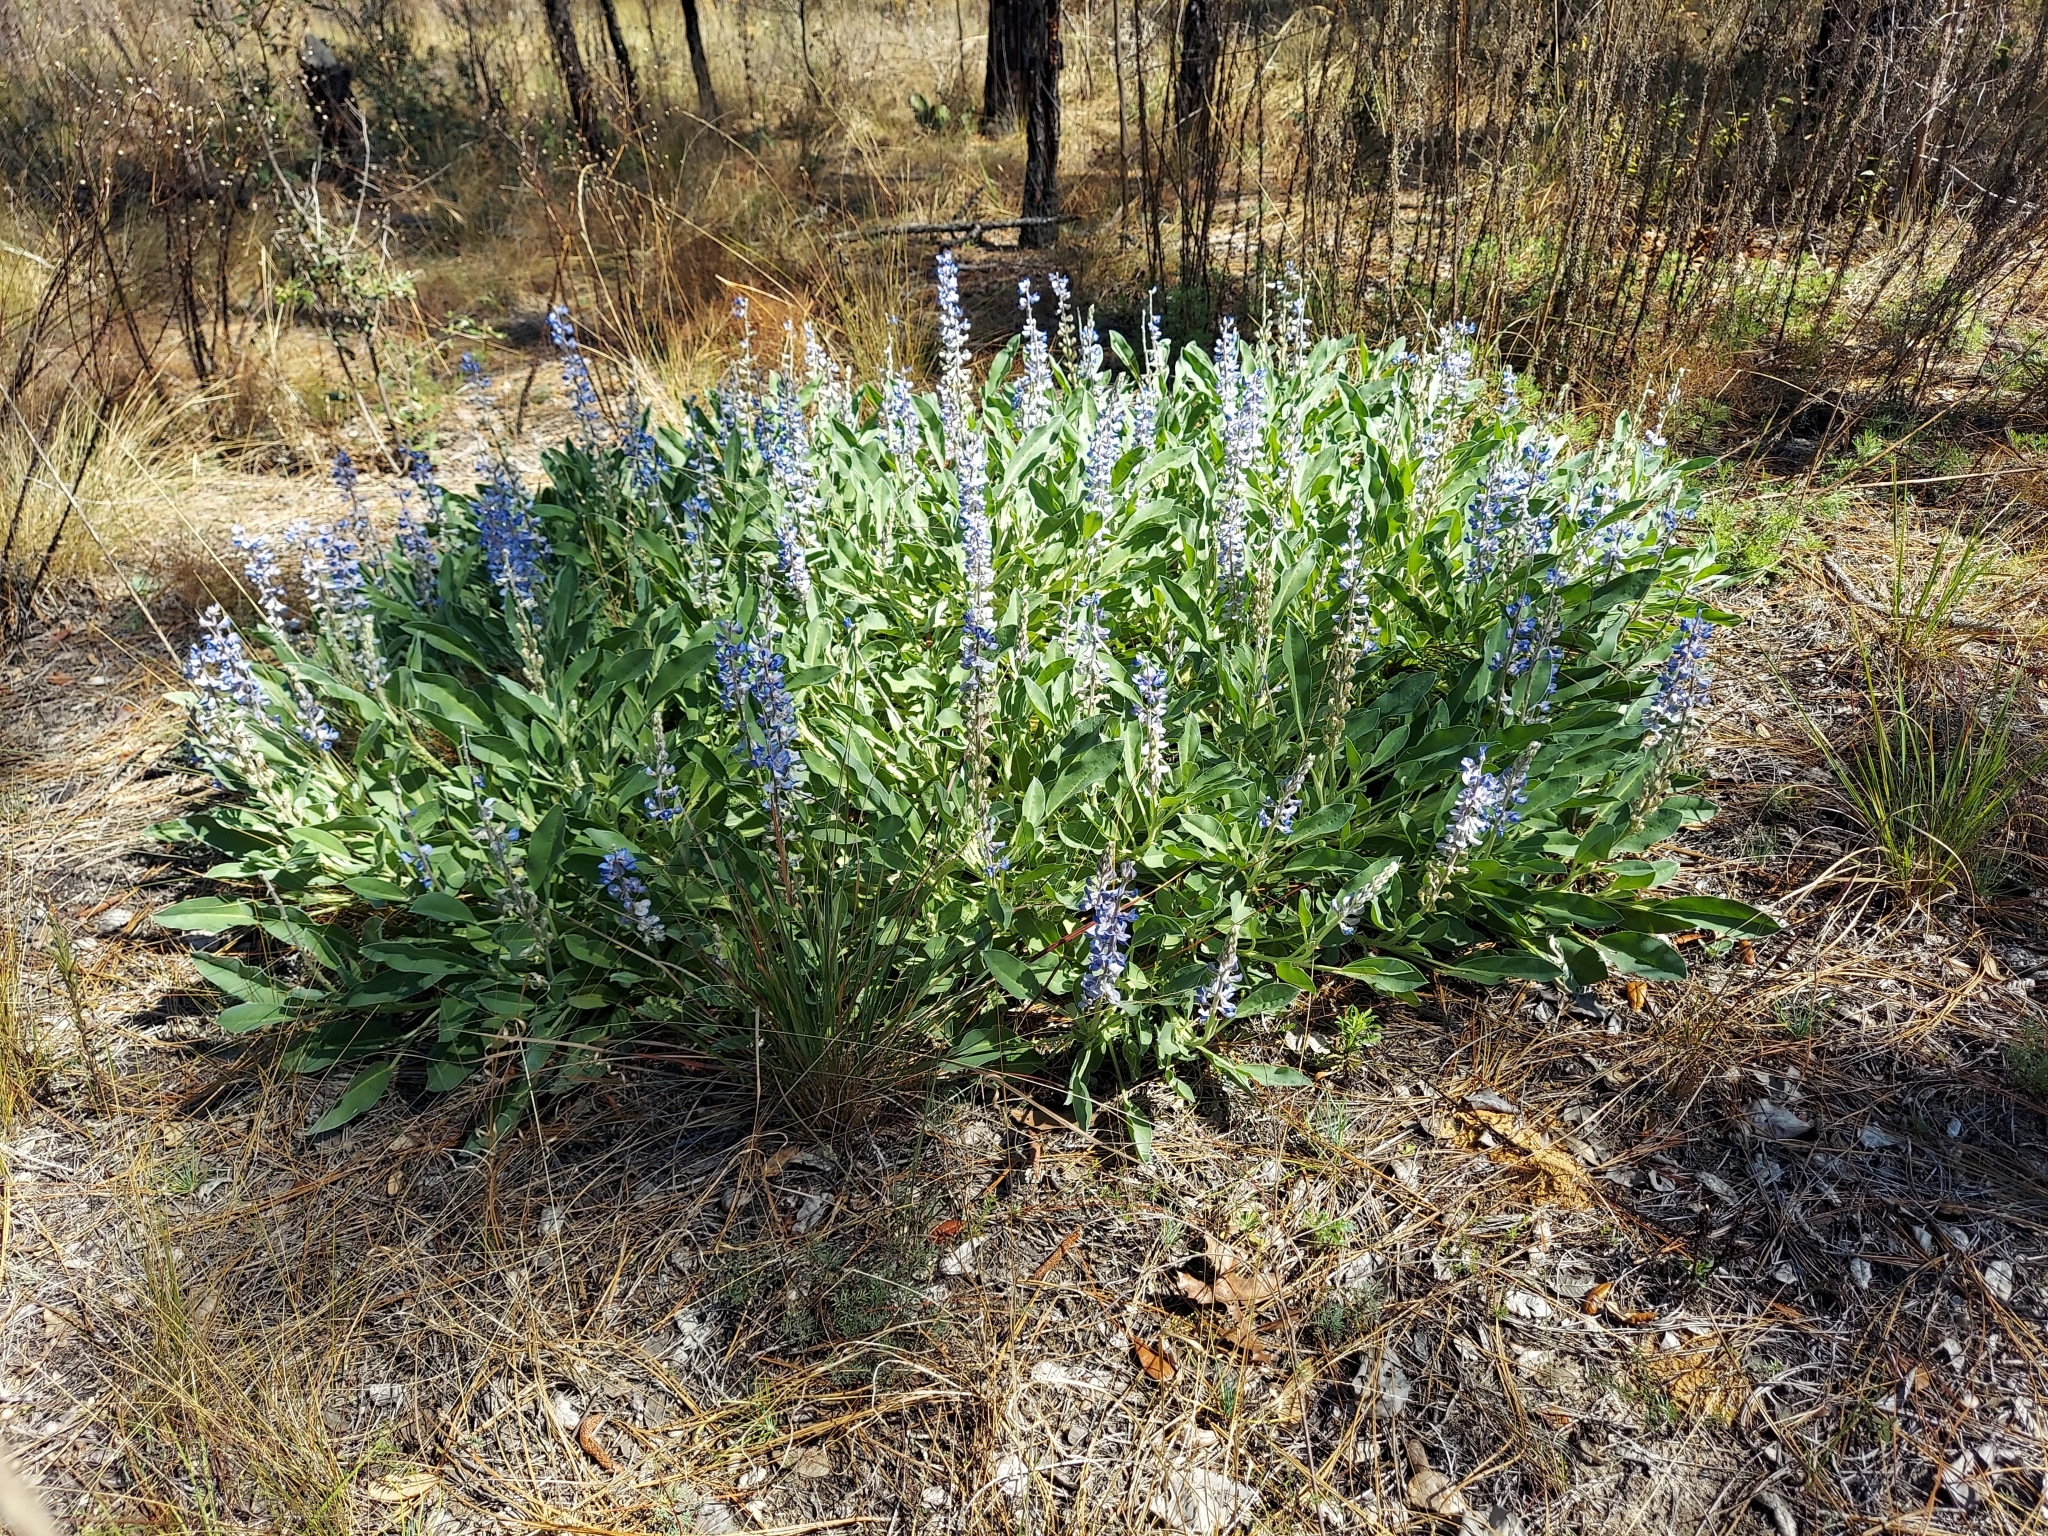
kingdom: Plantae
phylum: Tracheophyta
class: Magnoliopsida
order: Fabales
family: Fabaceae
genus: Lupinus
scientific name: Lupinus
